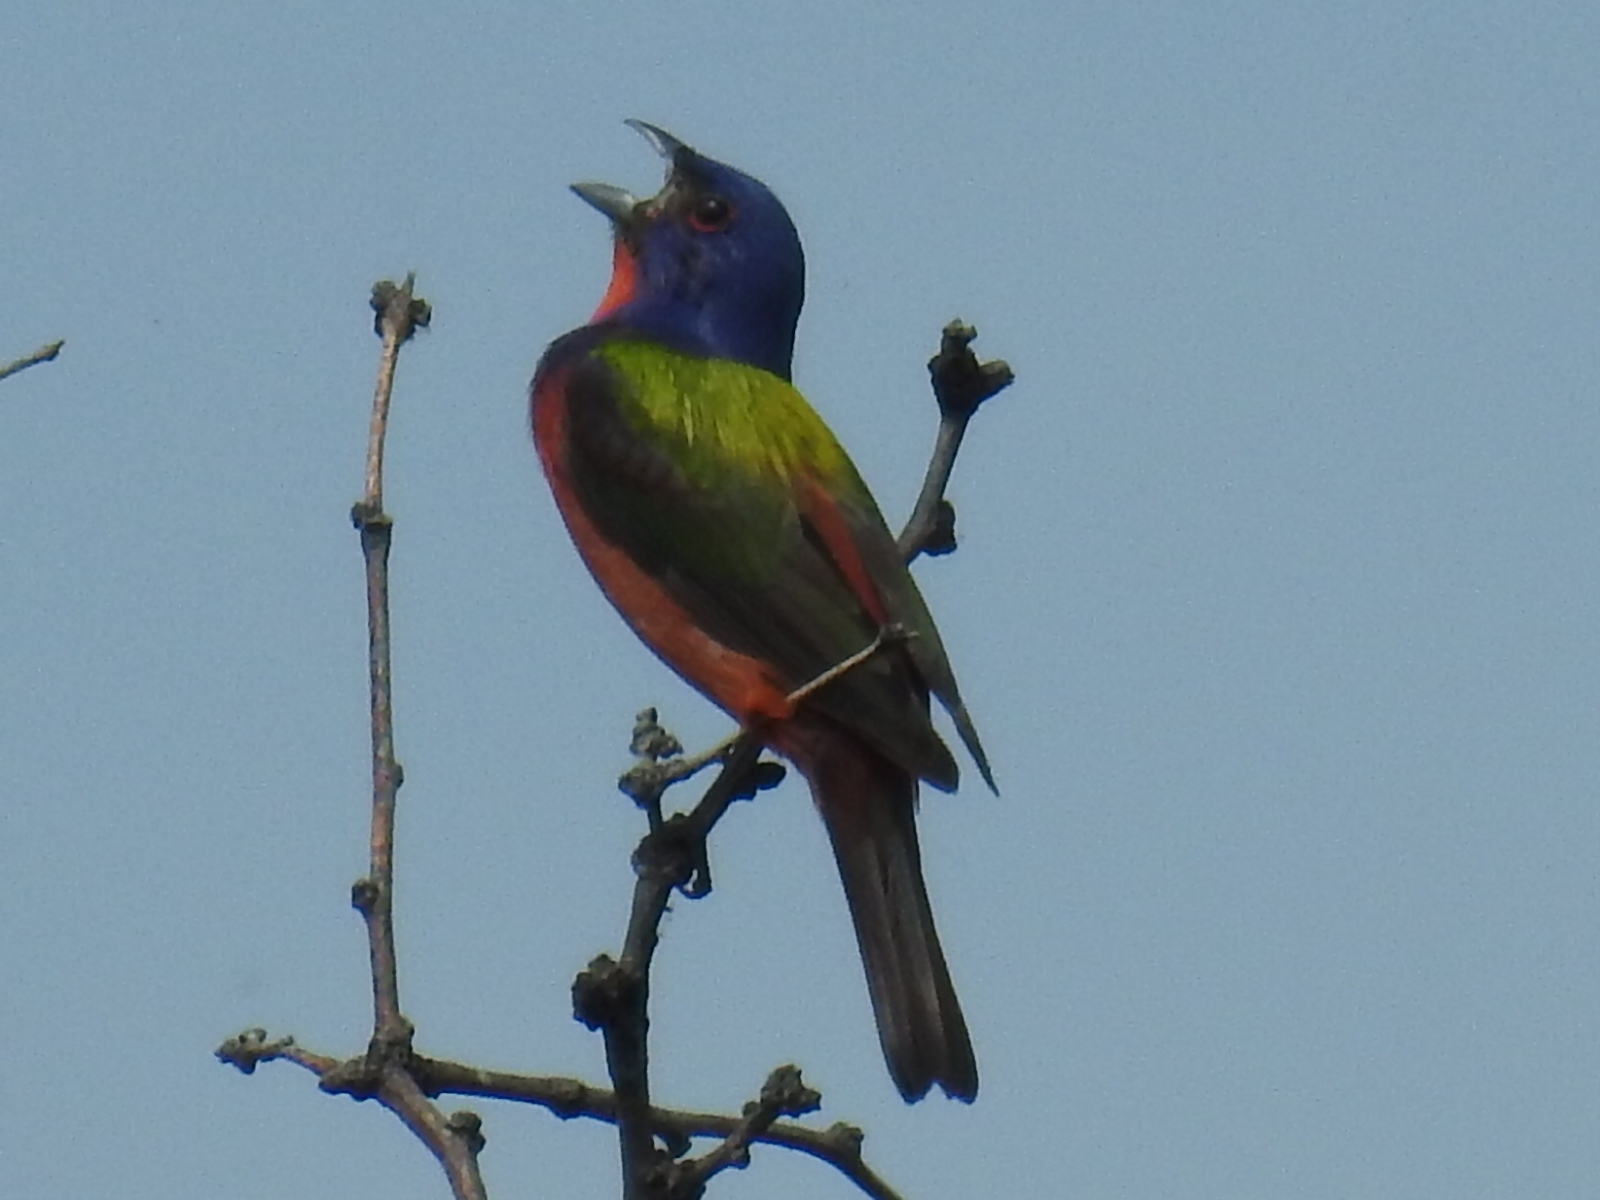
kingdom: Animalia
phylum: Chordata
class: Aves
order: Passeriformes
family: Cardinalidae
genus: Passerina
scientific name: Passerina ciris
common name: Painted bunting
